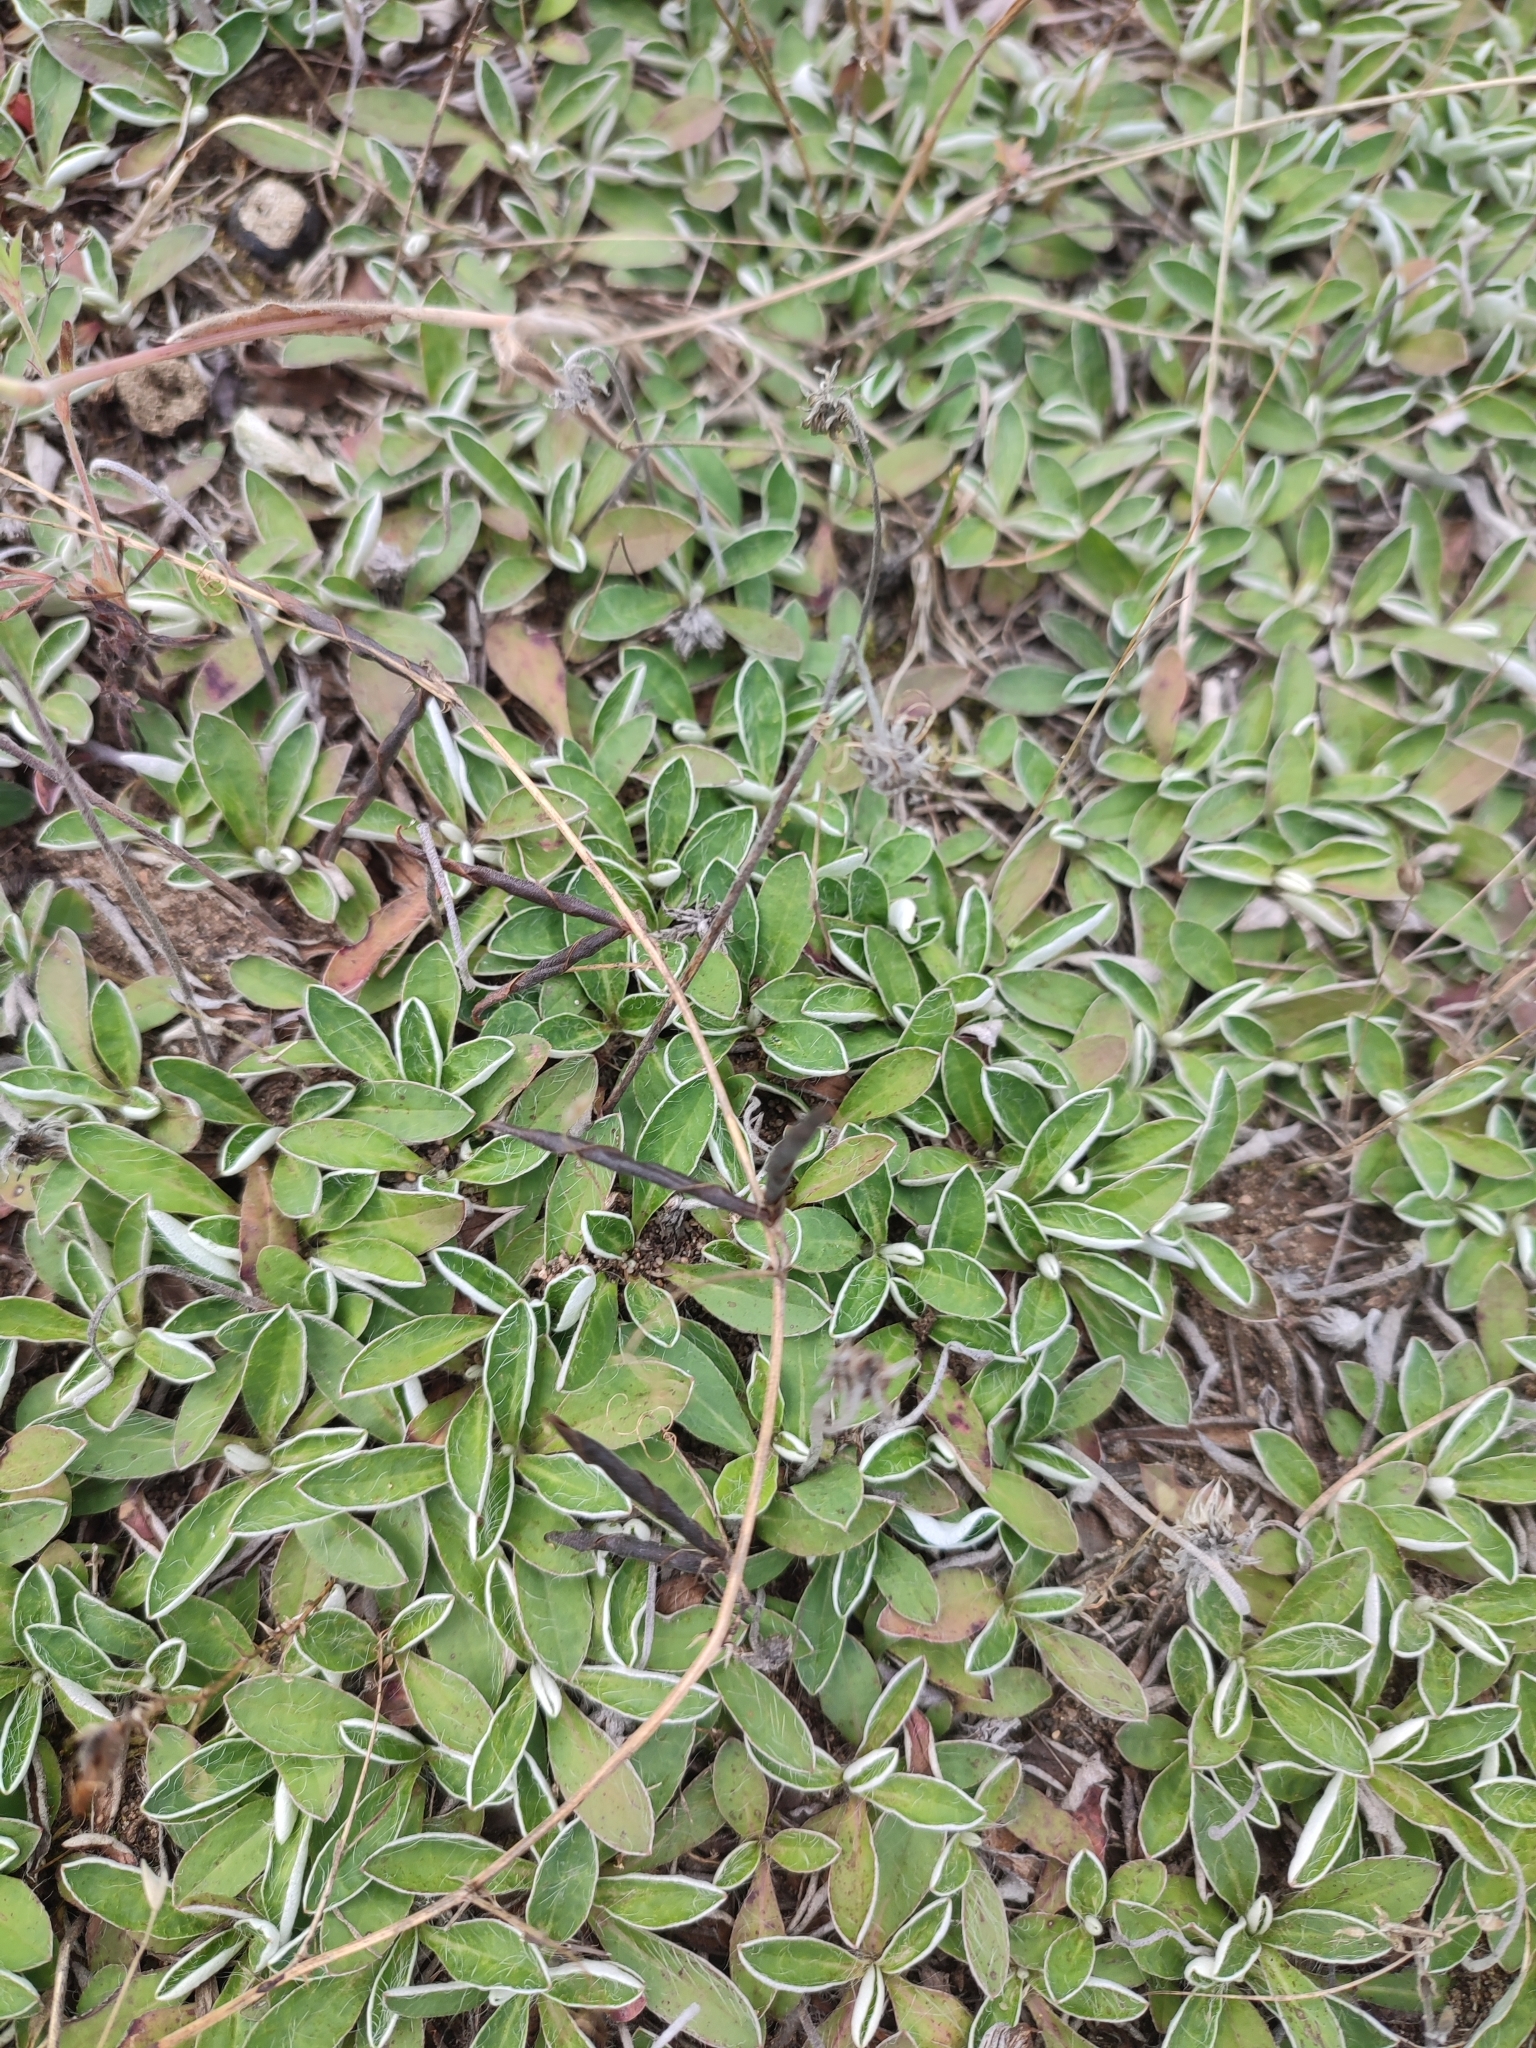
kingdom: Plantae
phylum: Tracheophyta
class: Magnoliopsida
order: Asterales
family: Asteraceae
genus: Pilosella
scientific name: Pilosella officinarum
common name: Mouse-ear hawkweed
